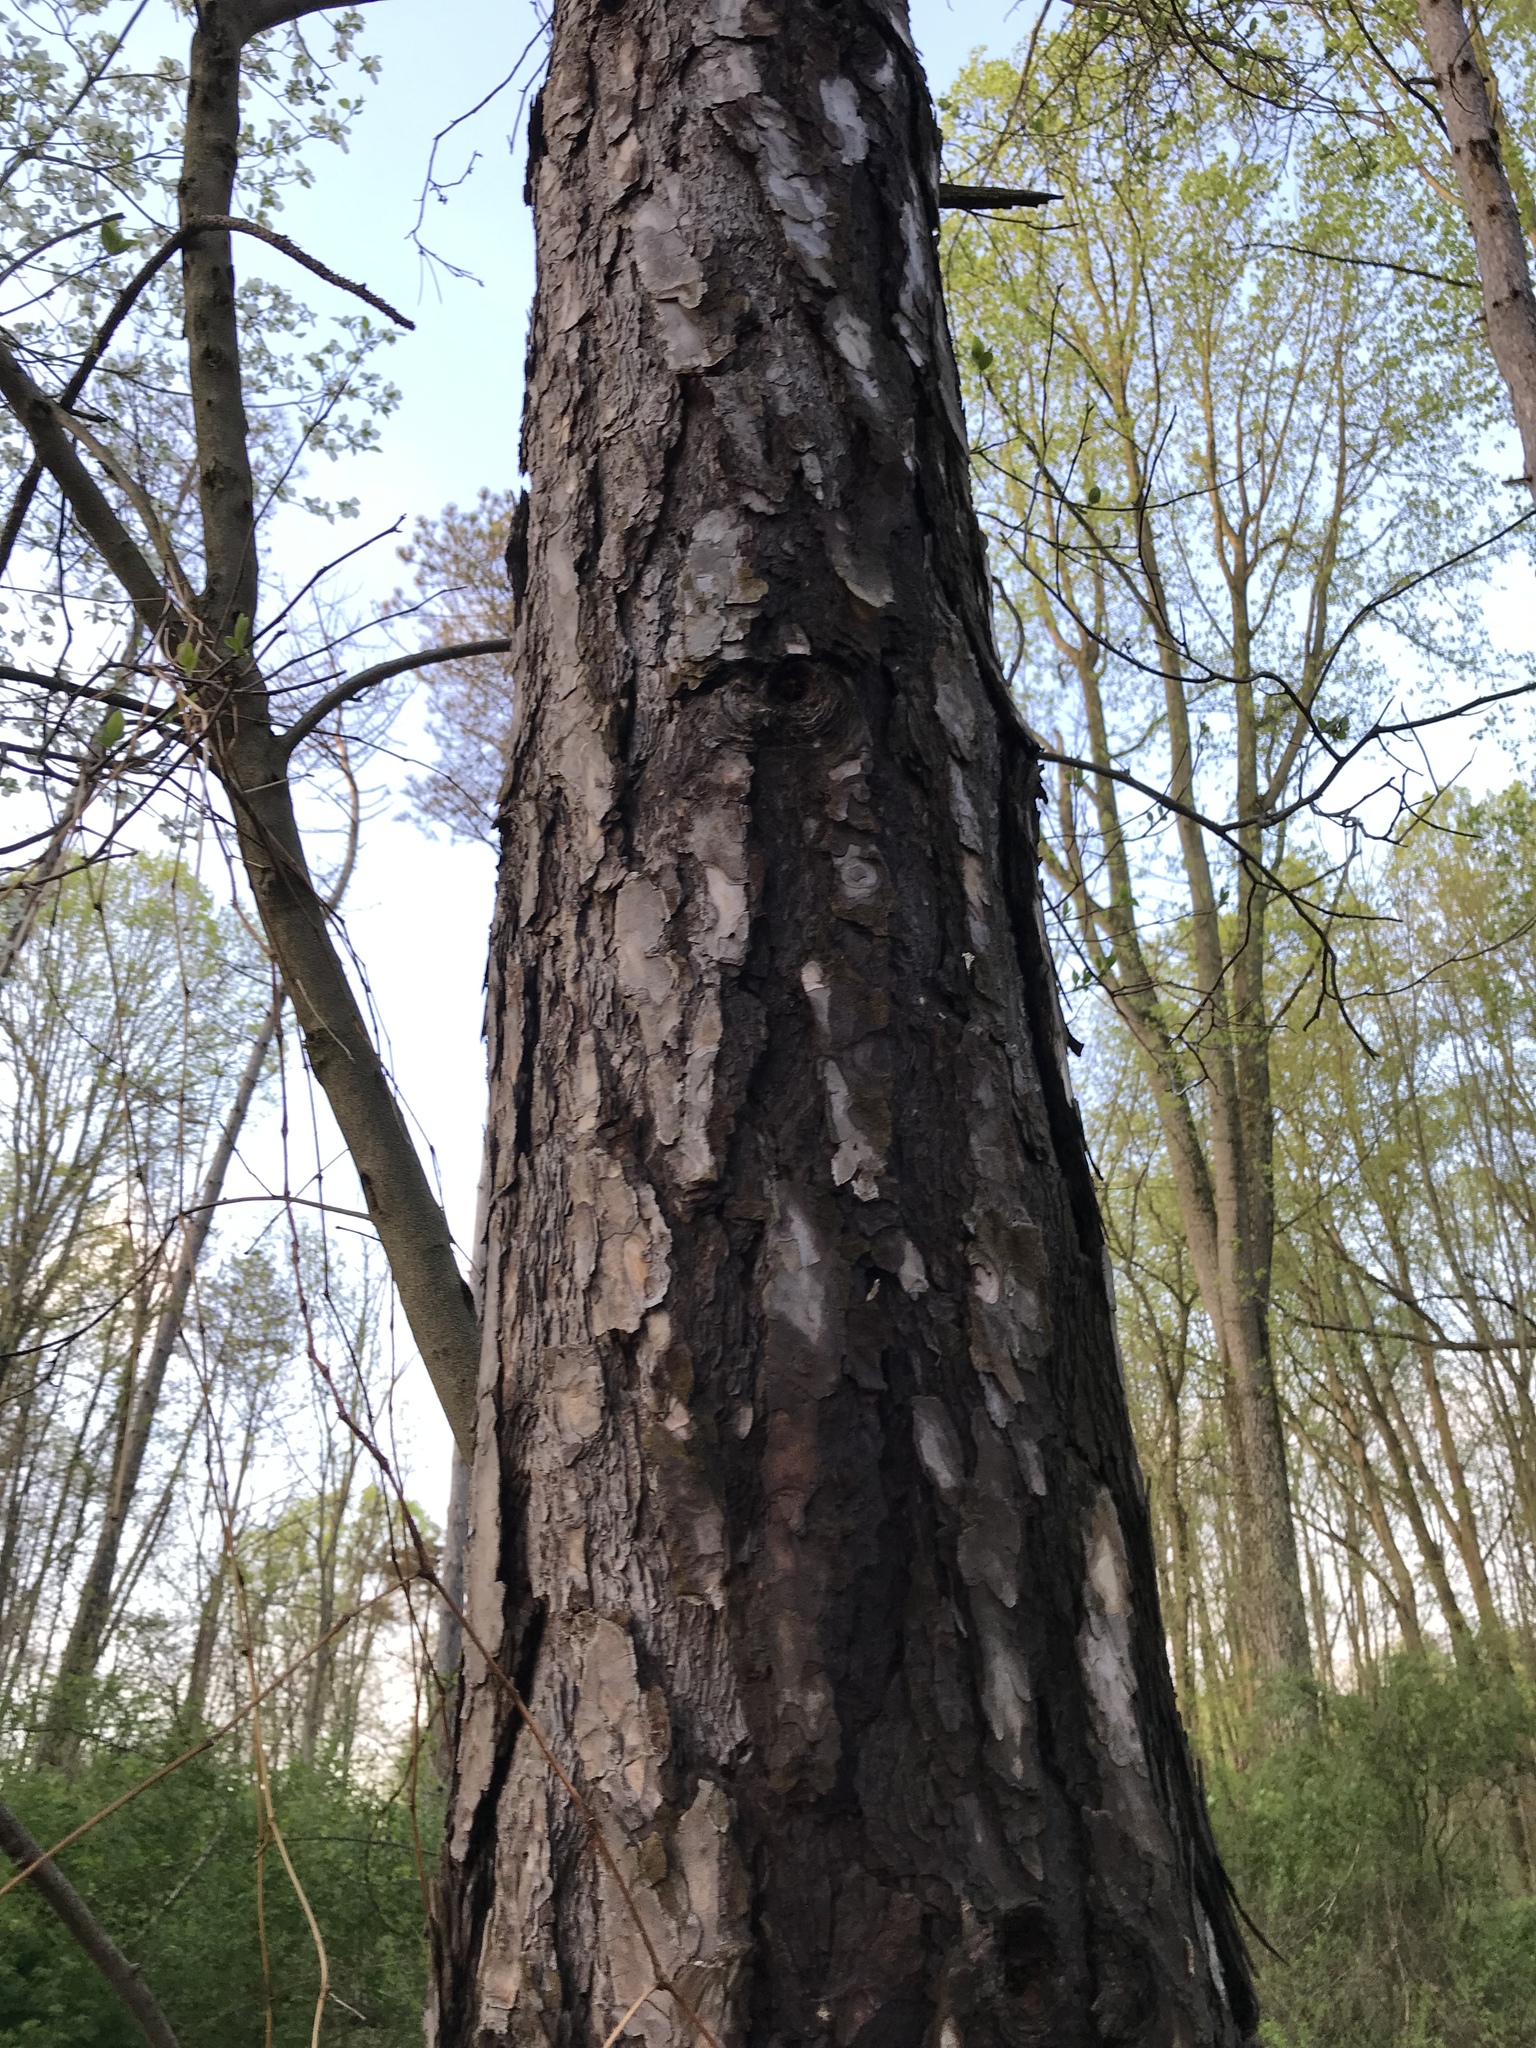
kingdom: Plantae
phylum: Tracheophyta
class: Pinopsida
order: Pinales
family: Pinaceae
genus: Pinus
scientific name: Pinus resinosa
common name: Norway pine
